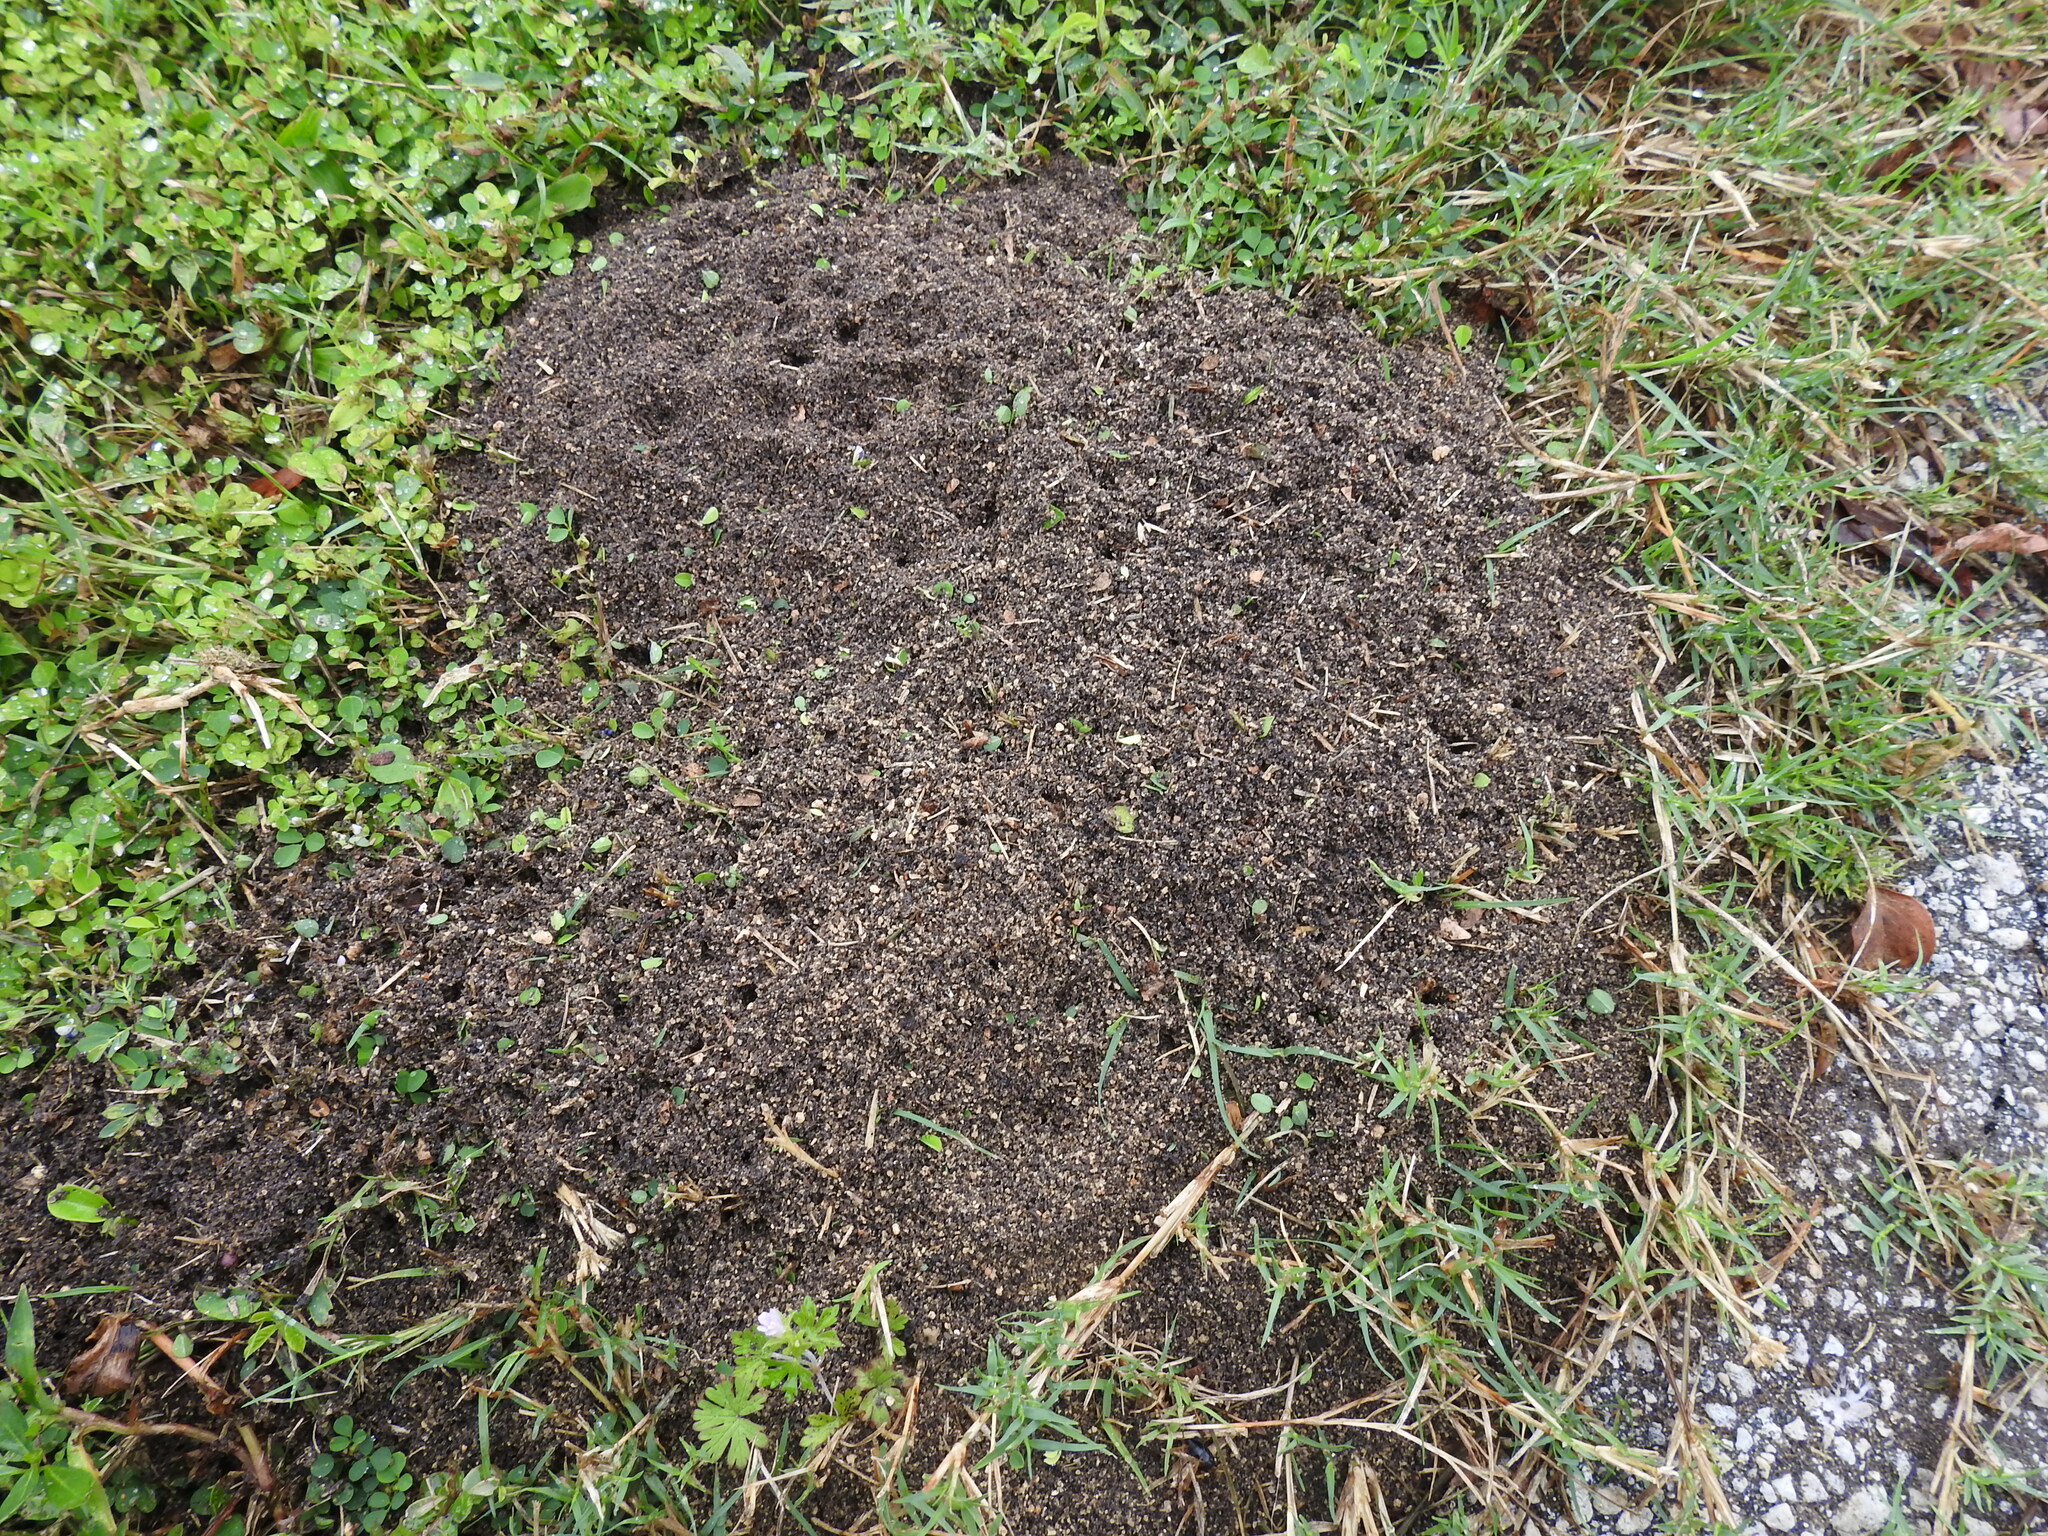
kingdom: Animalia
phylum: Arthropoda
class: Insecta
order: Hymenoptera
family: Formicidae
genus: Solenopsis
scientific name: Solenopsis invicta
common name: Red imported fire ant
